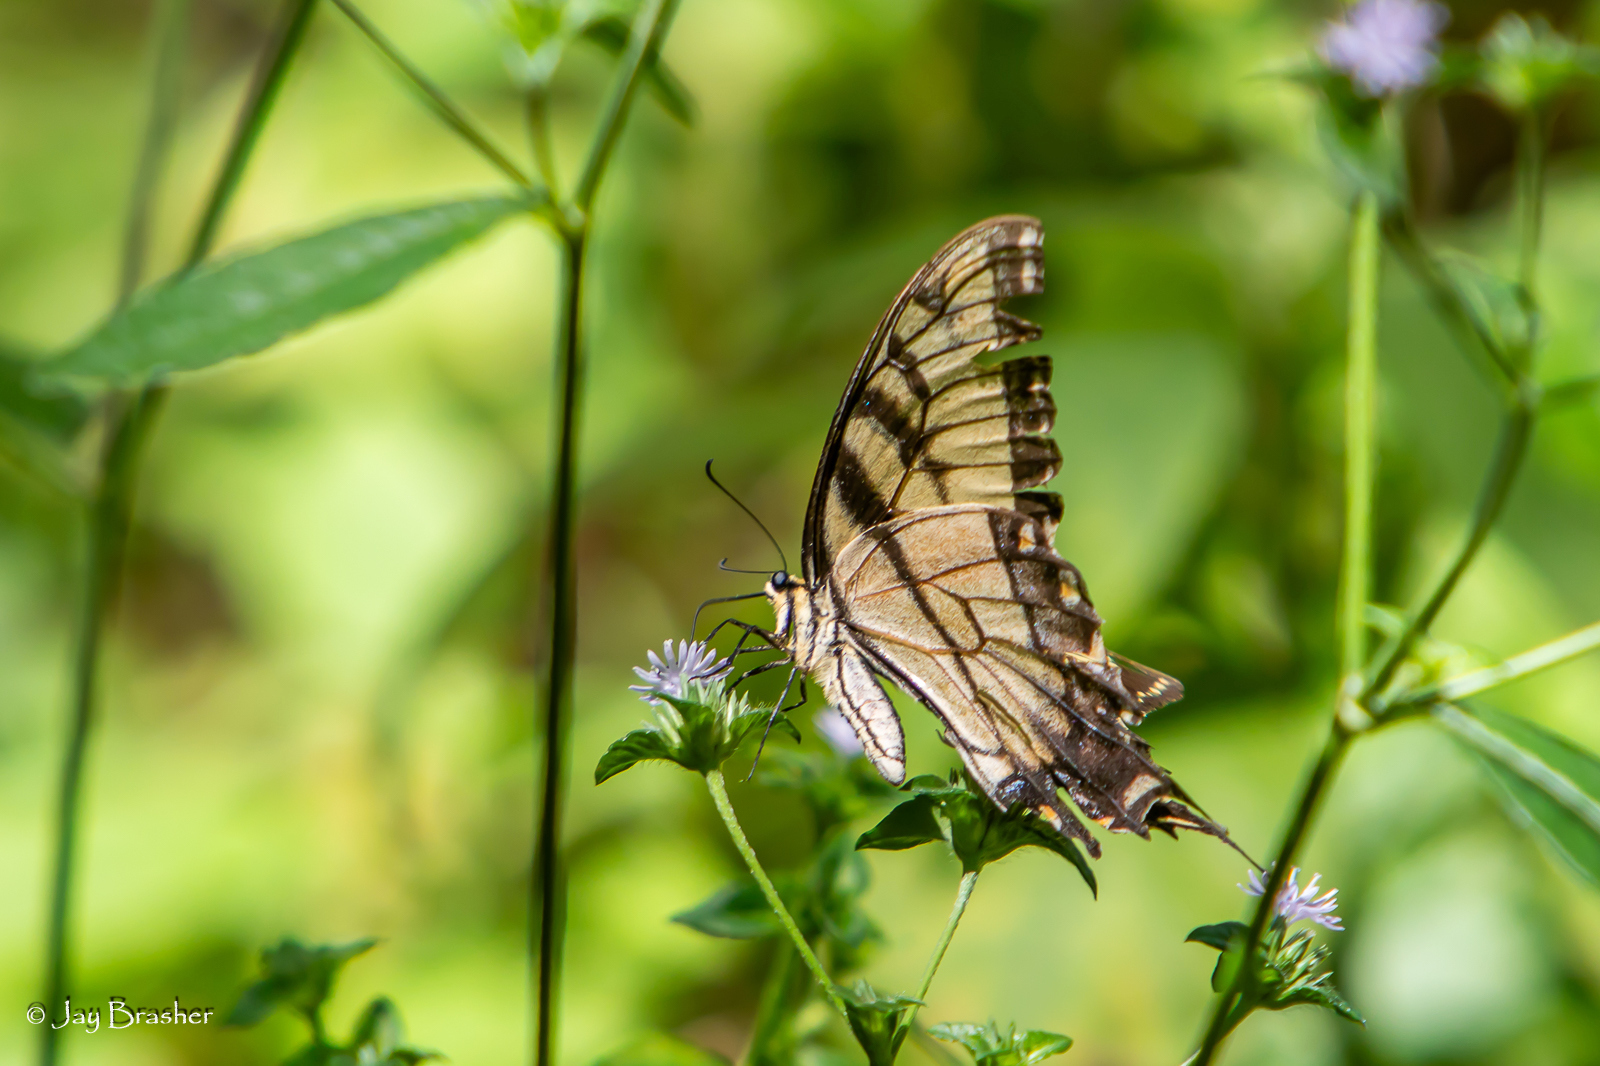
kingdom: Animalia
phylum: Arthropoda
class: Insecta
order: Lepidoptera
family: Papilionidae
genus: Papilio
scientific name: Papilio glaucus
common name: Tiger swallowtail
